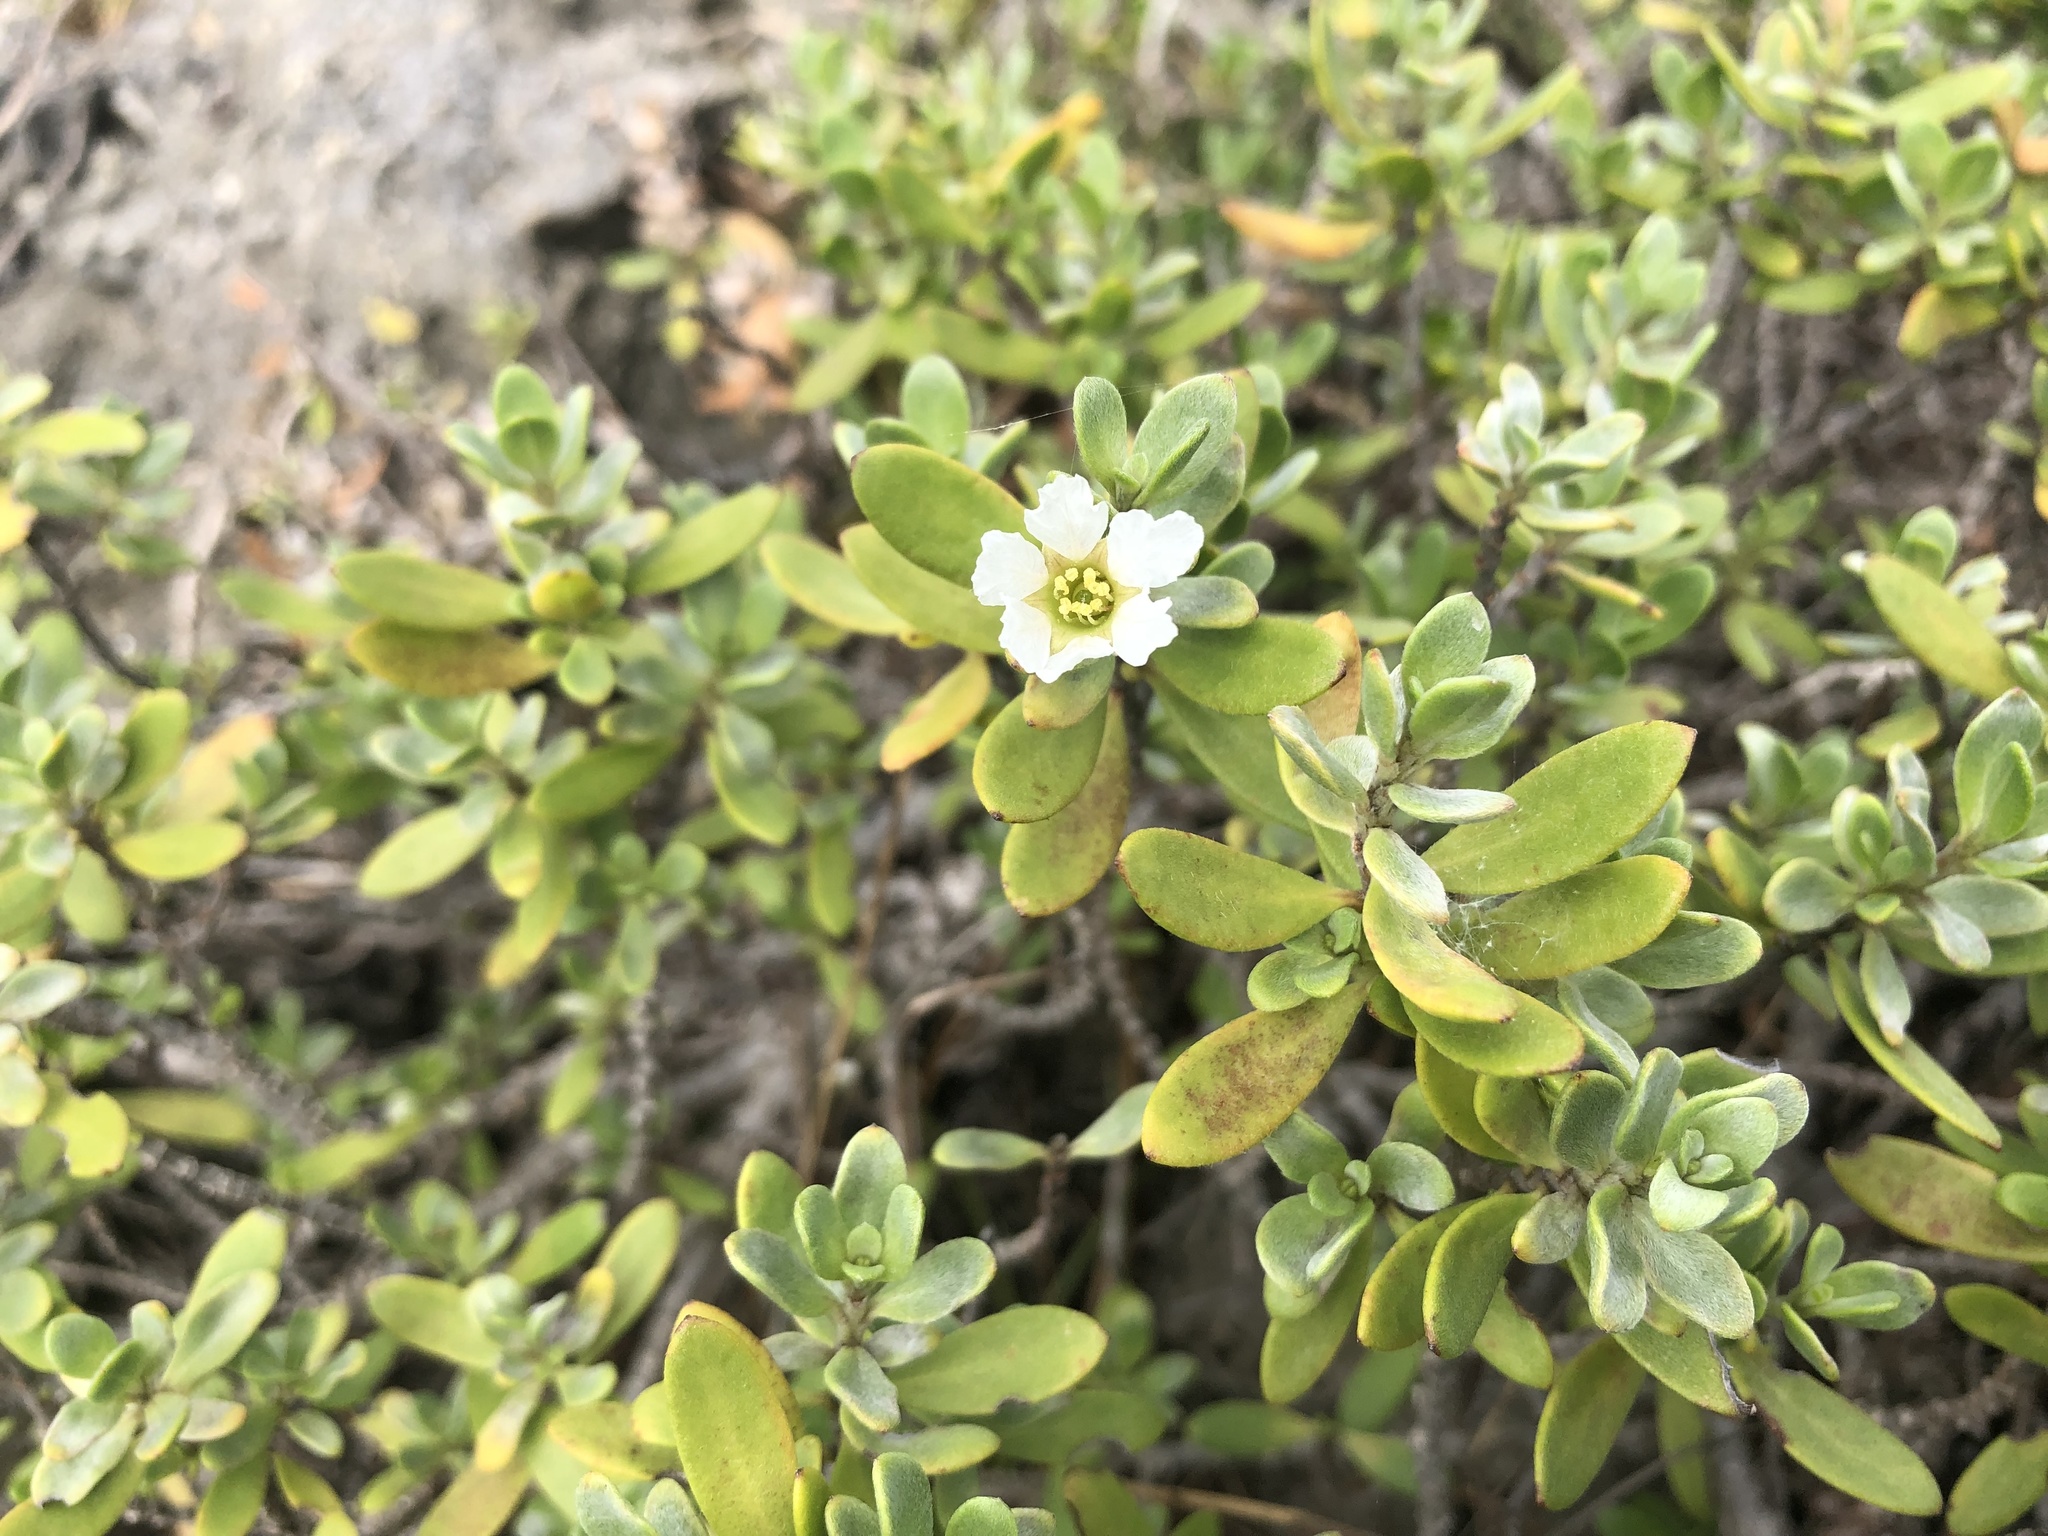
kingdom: Plantae
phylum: Tracheophyta
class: Magnoliopsida
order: Myrtales
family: Lythraceae
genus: Pemphis
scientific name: Pemphis acidula
